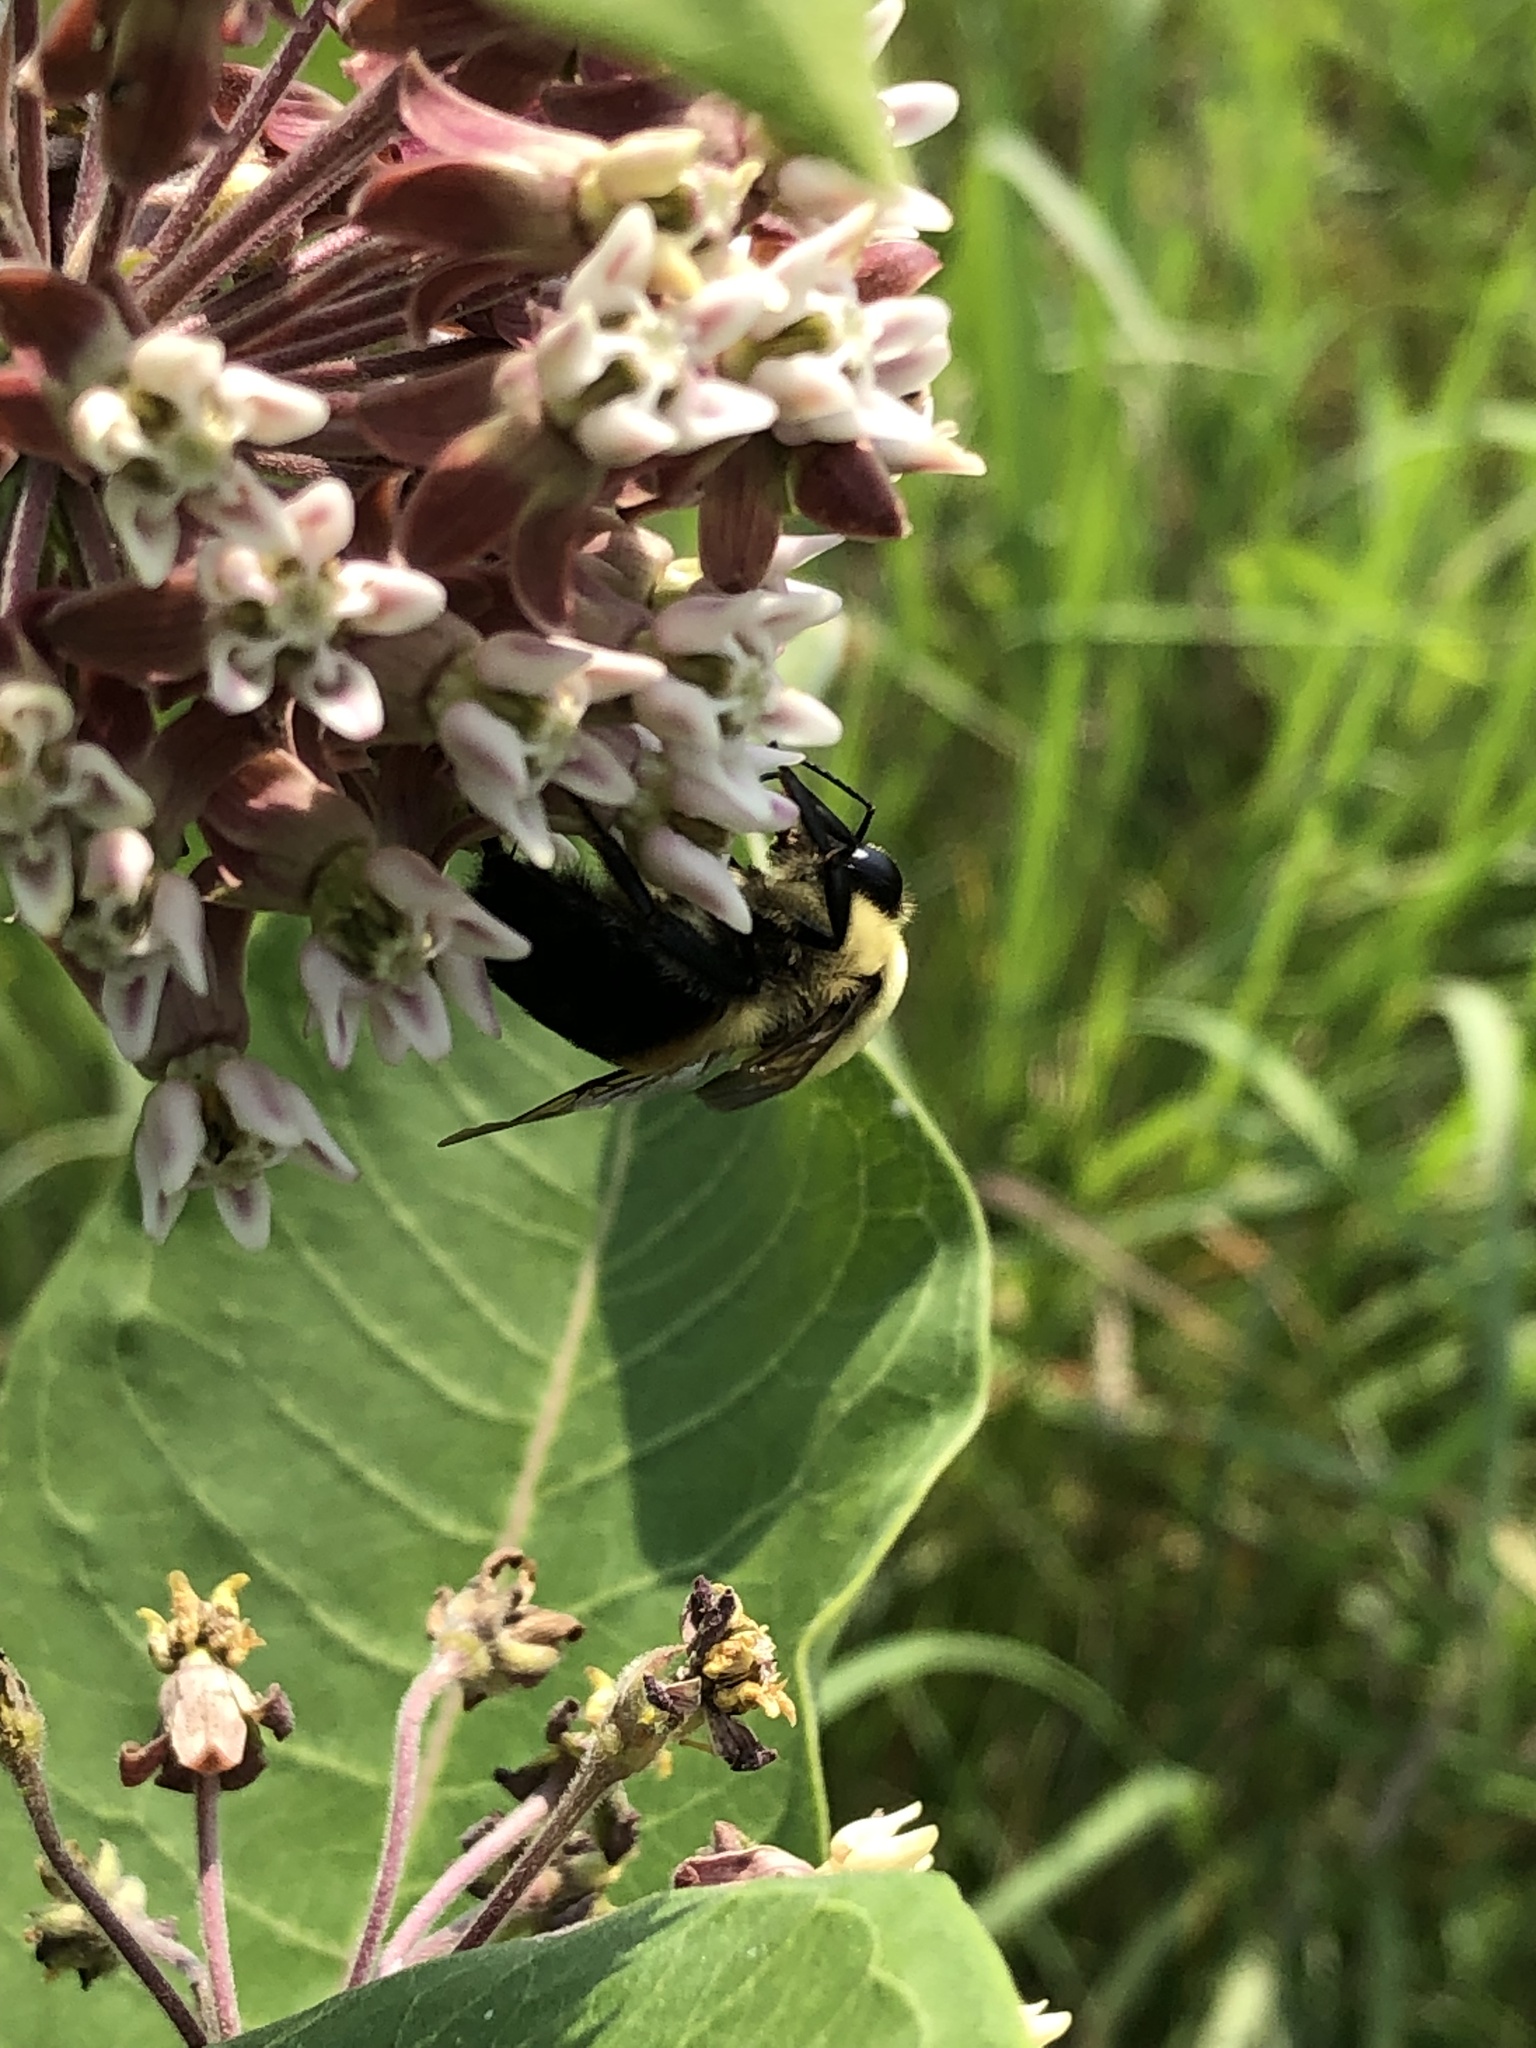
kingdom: Animalia
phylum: Arthropoda
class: Insecta
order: Hymenoptera
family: Apidae
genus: Bombus
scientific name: Bombus griseocollis
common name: Brown-belted bumble bee
